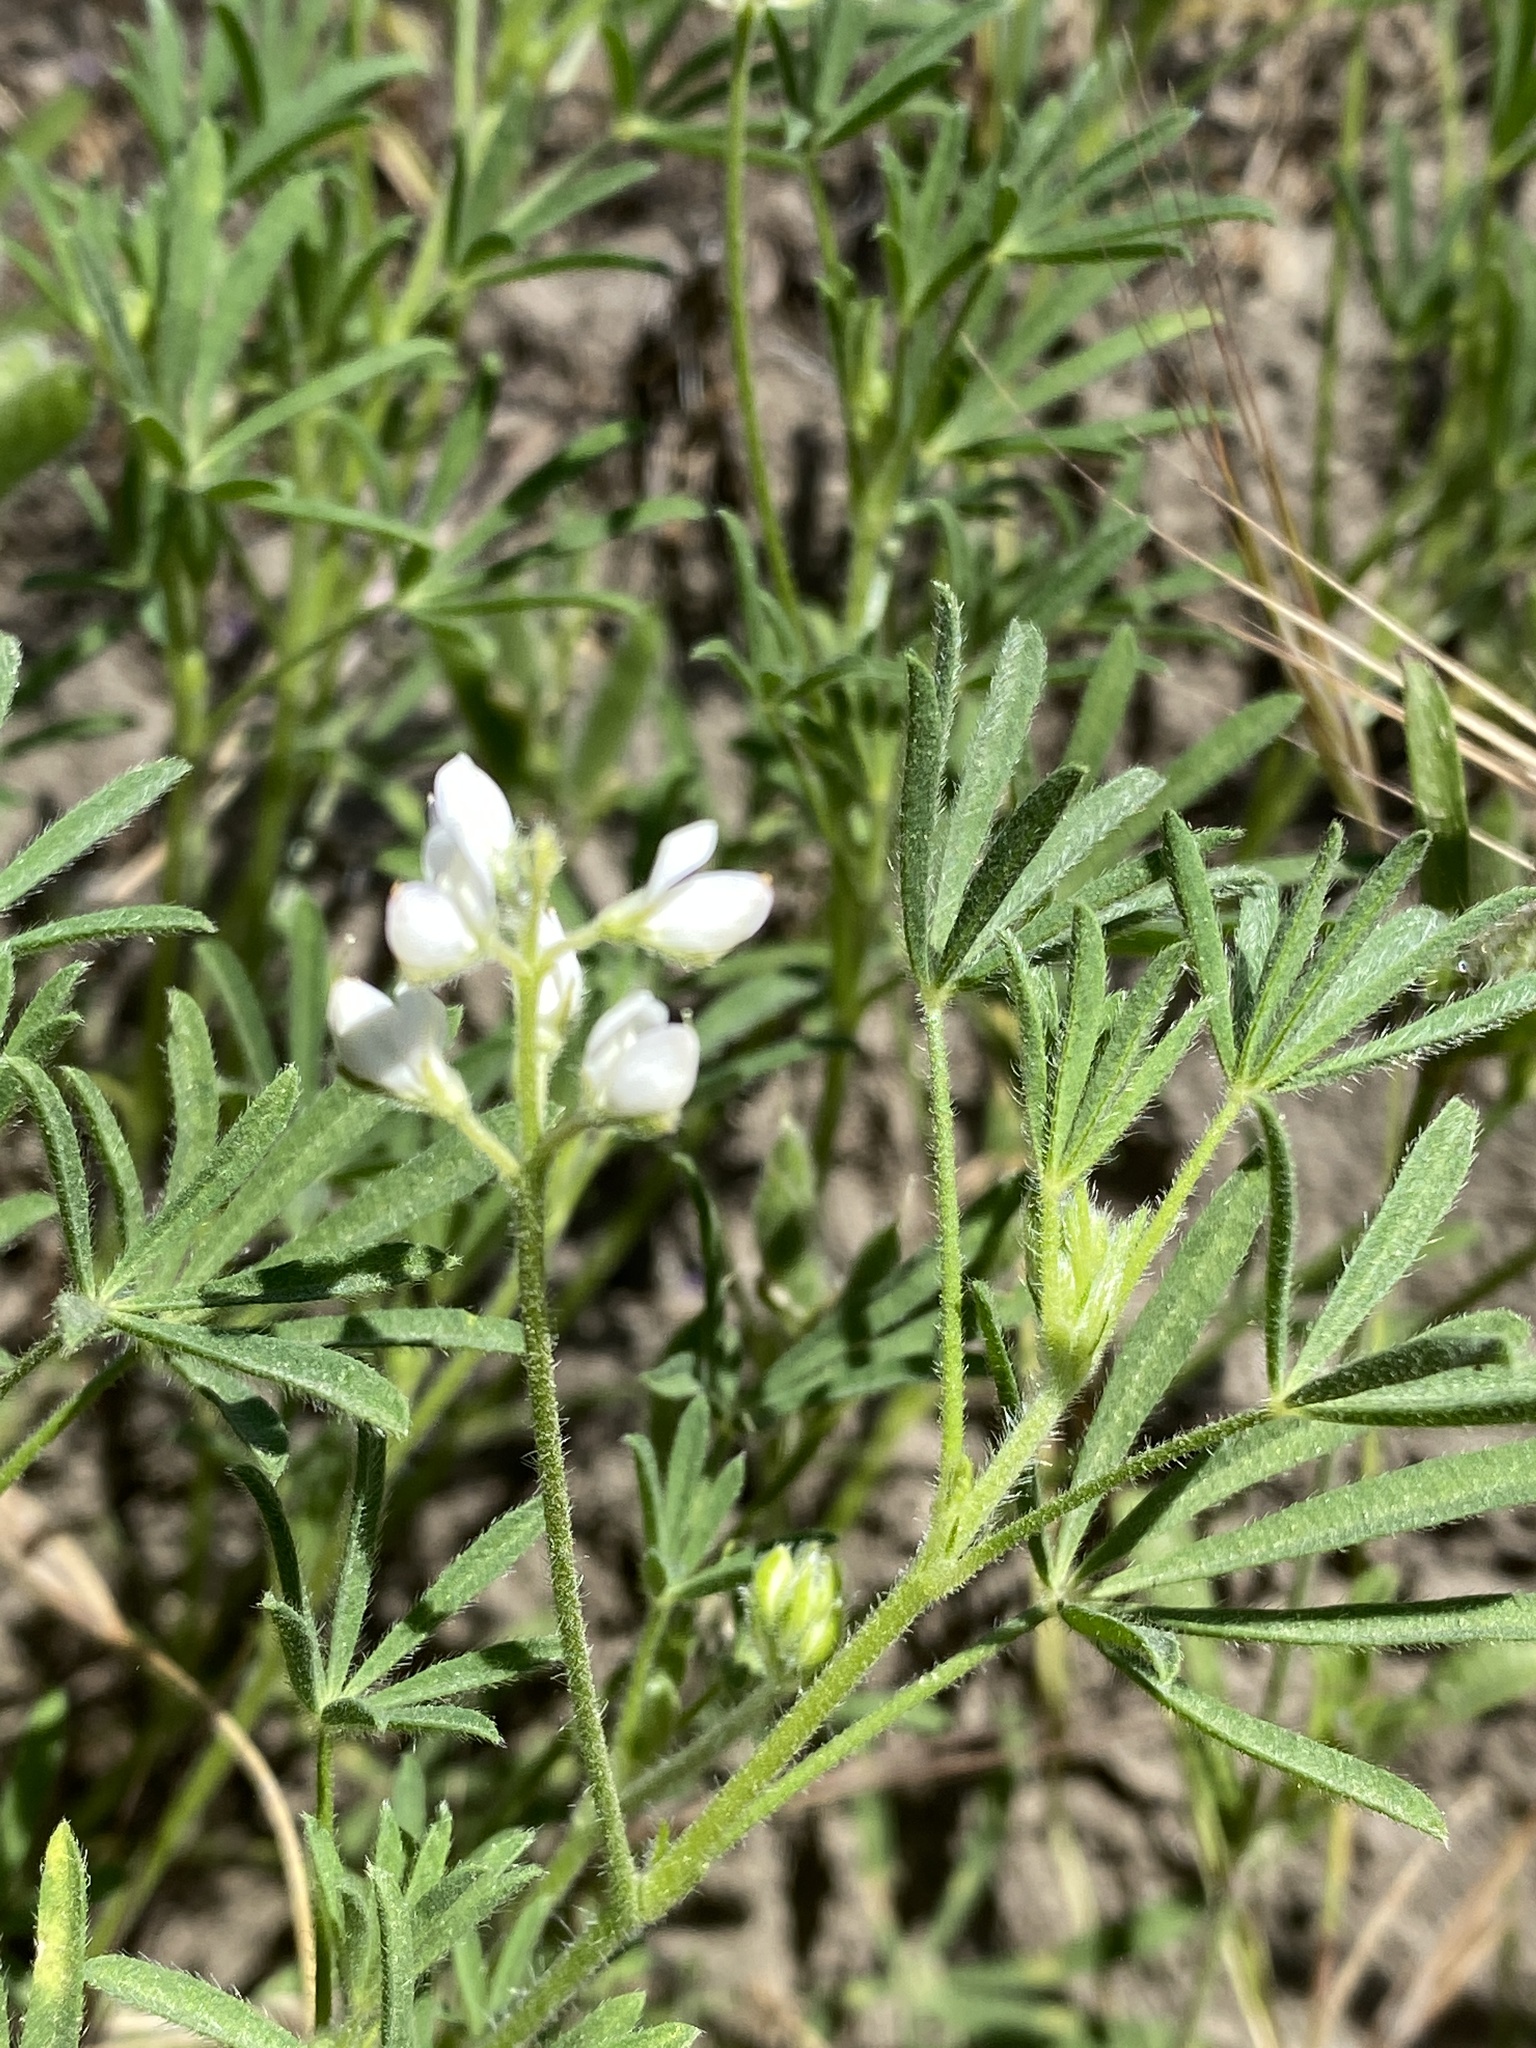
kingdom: Plantae
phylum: Tracheophyta
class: Magnoliopsida
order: Fabales
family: Fabaceae
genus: Lupinus
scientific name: Lupinus bicolor
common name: Miniature lupine
